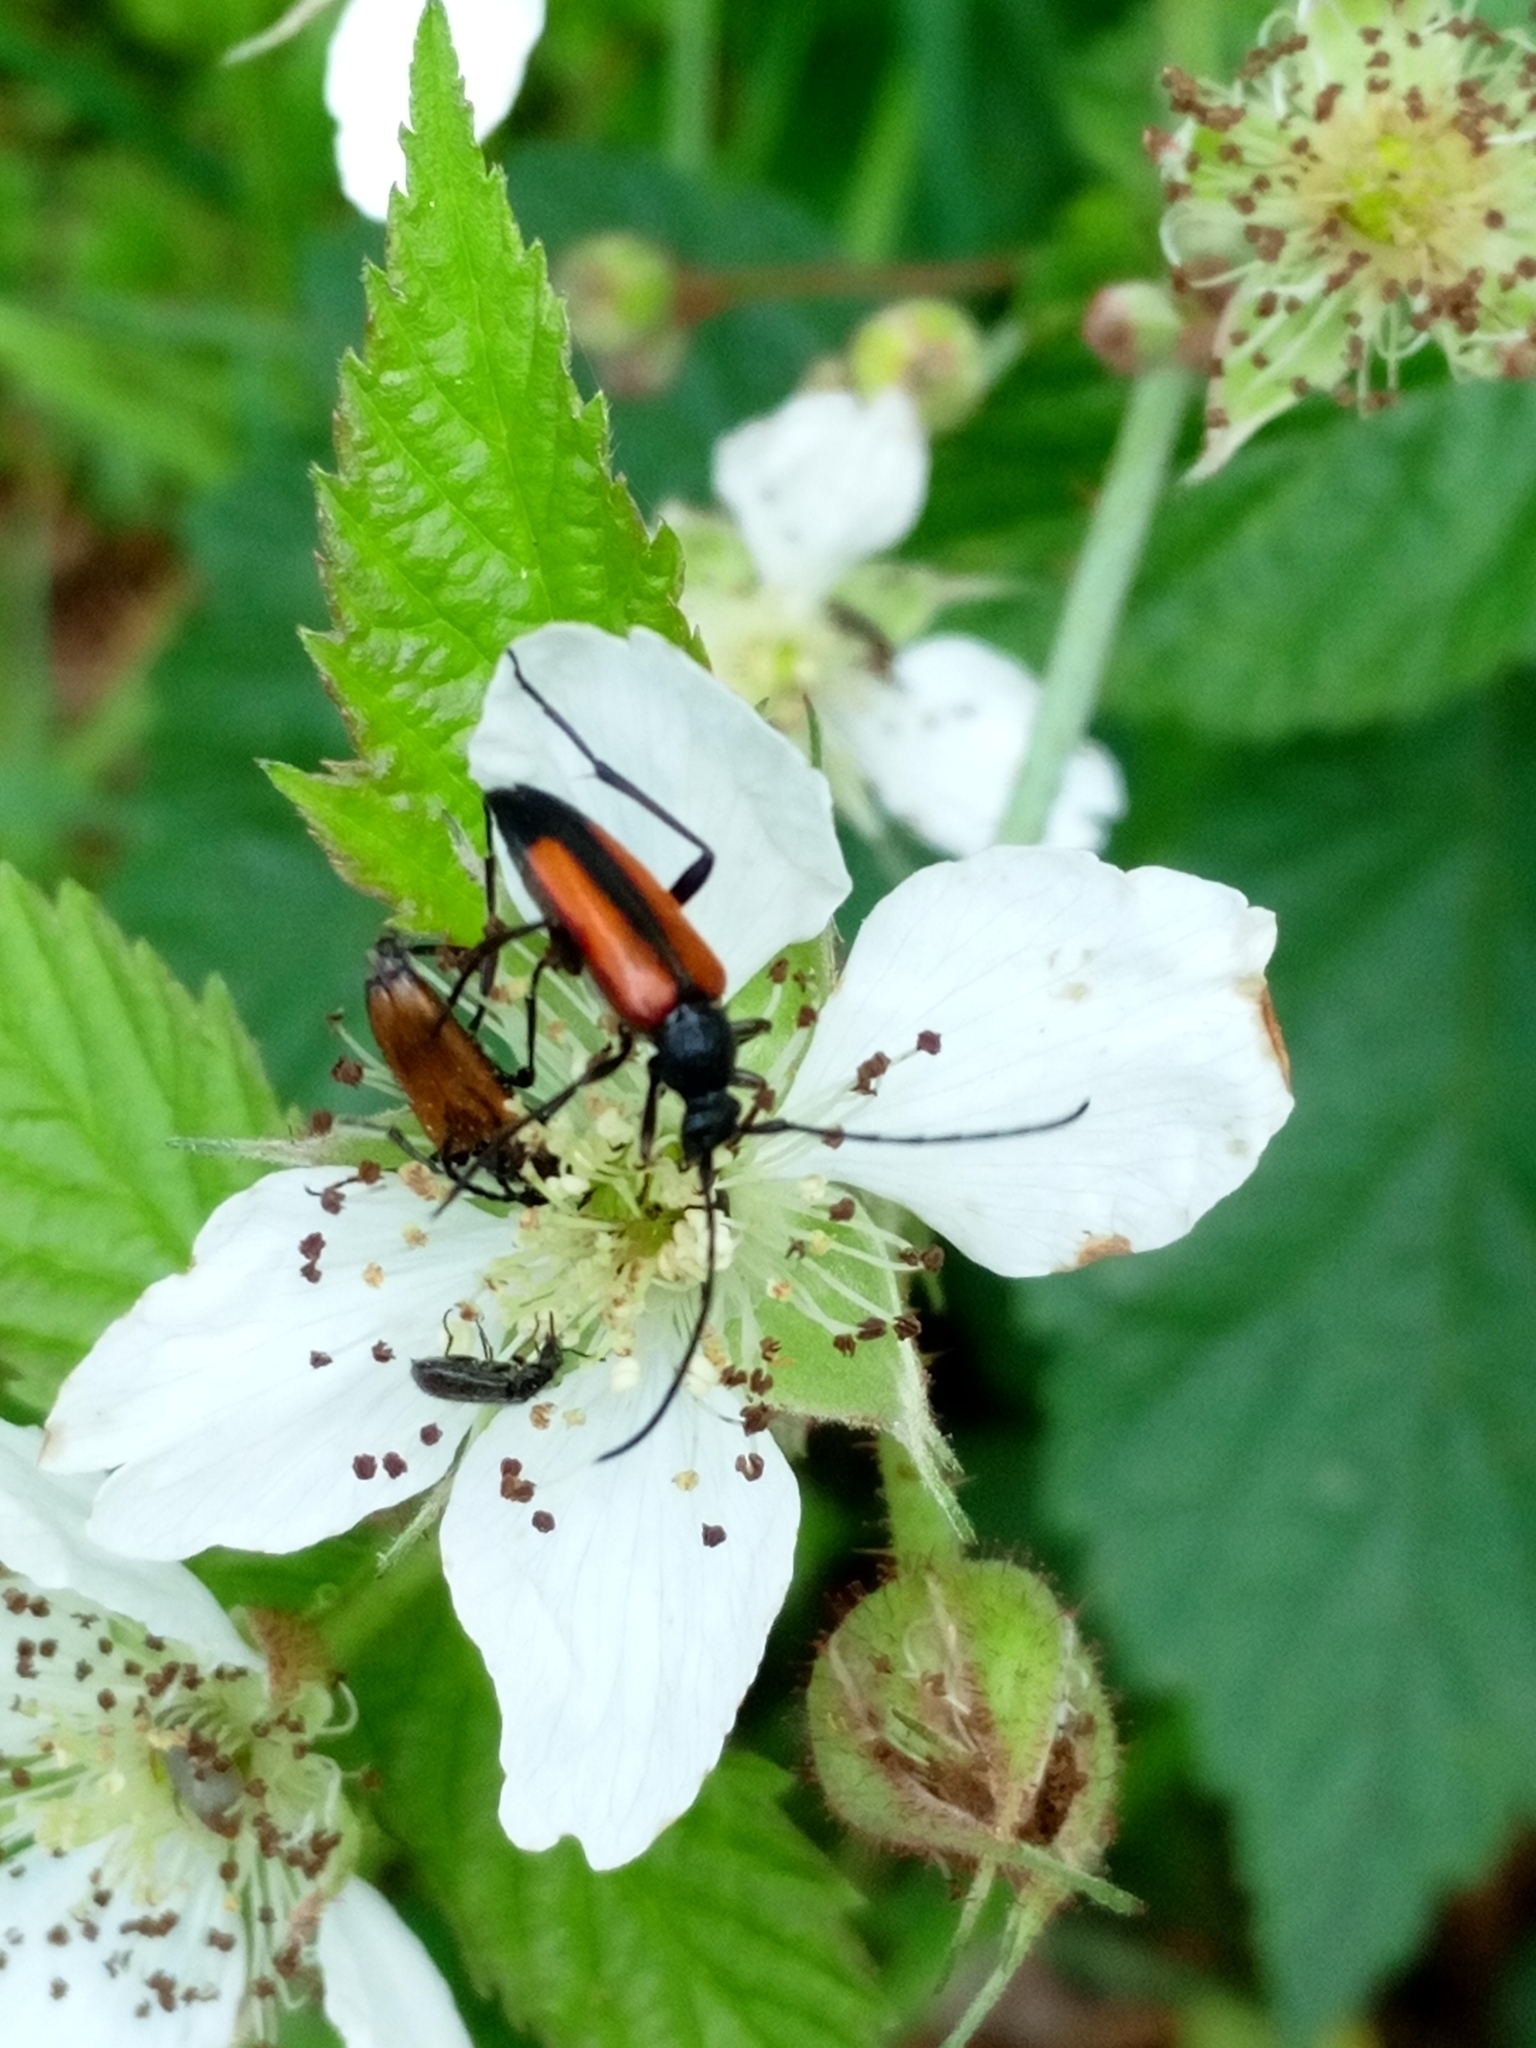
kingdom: Animalia
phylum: Arthropoda
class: Insecta
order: Coleoptera
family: Cerambycidae
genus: Stenurella
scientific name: Stenurella melanura
